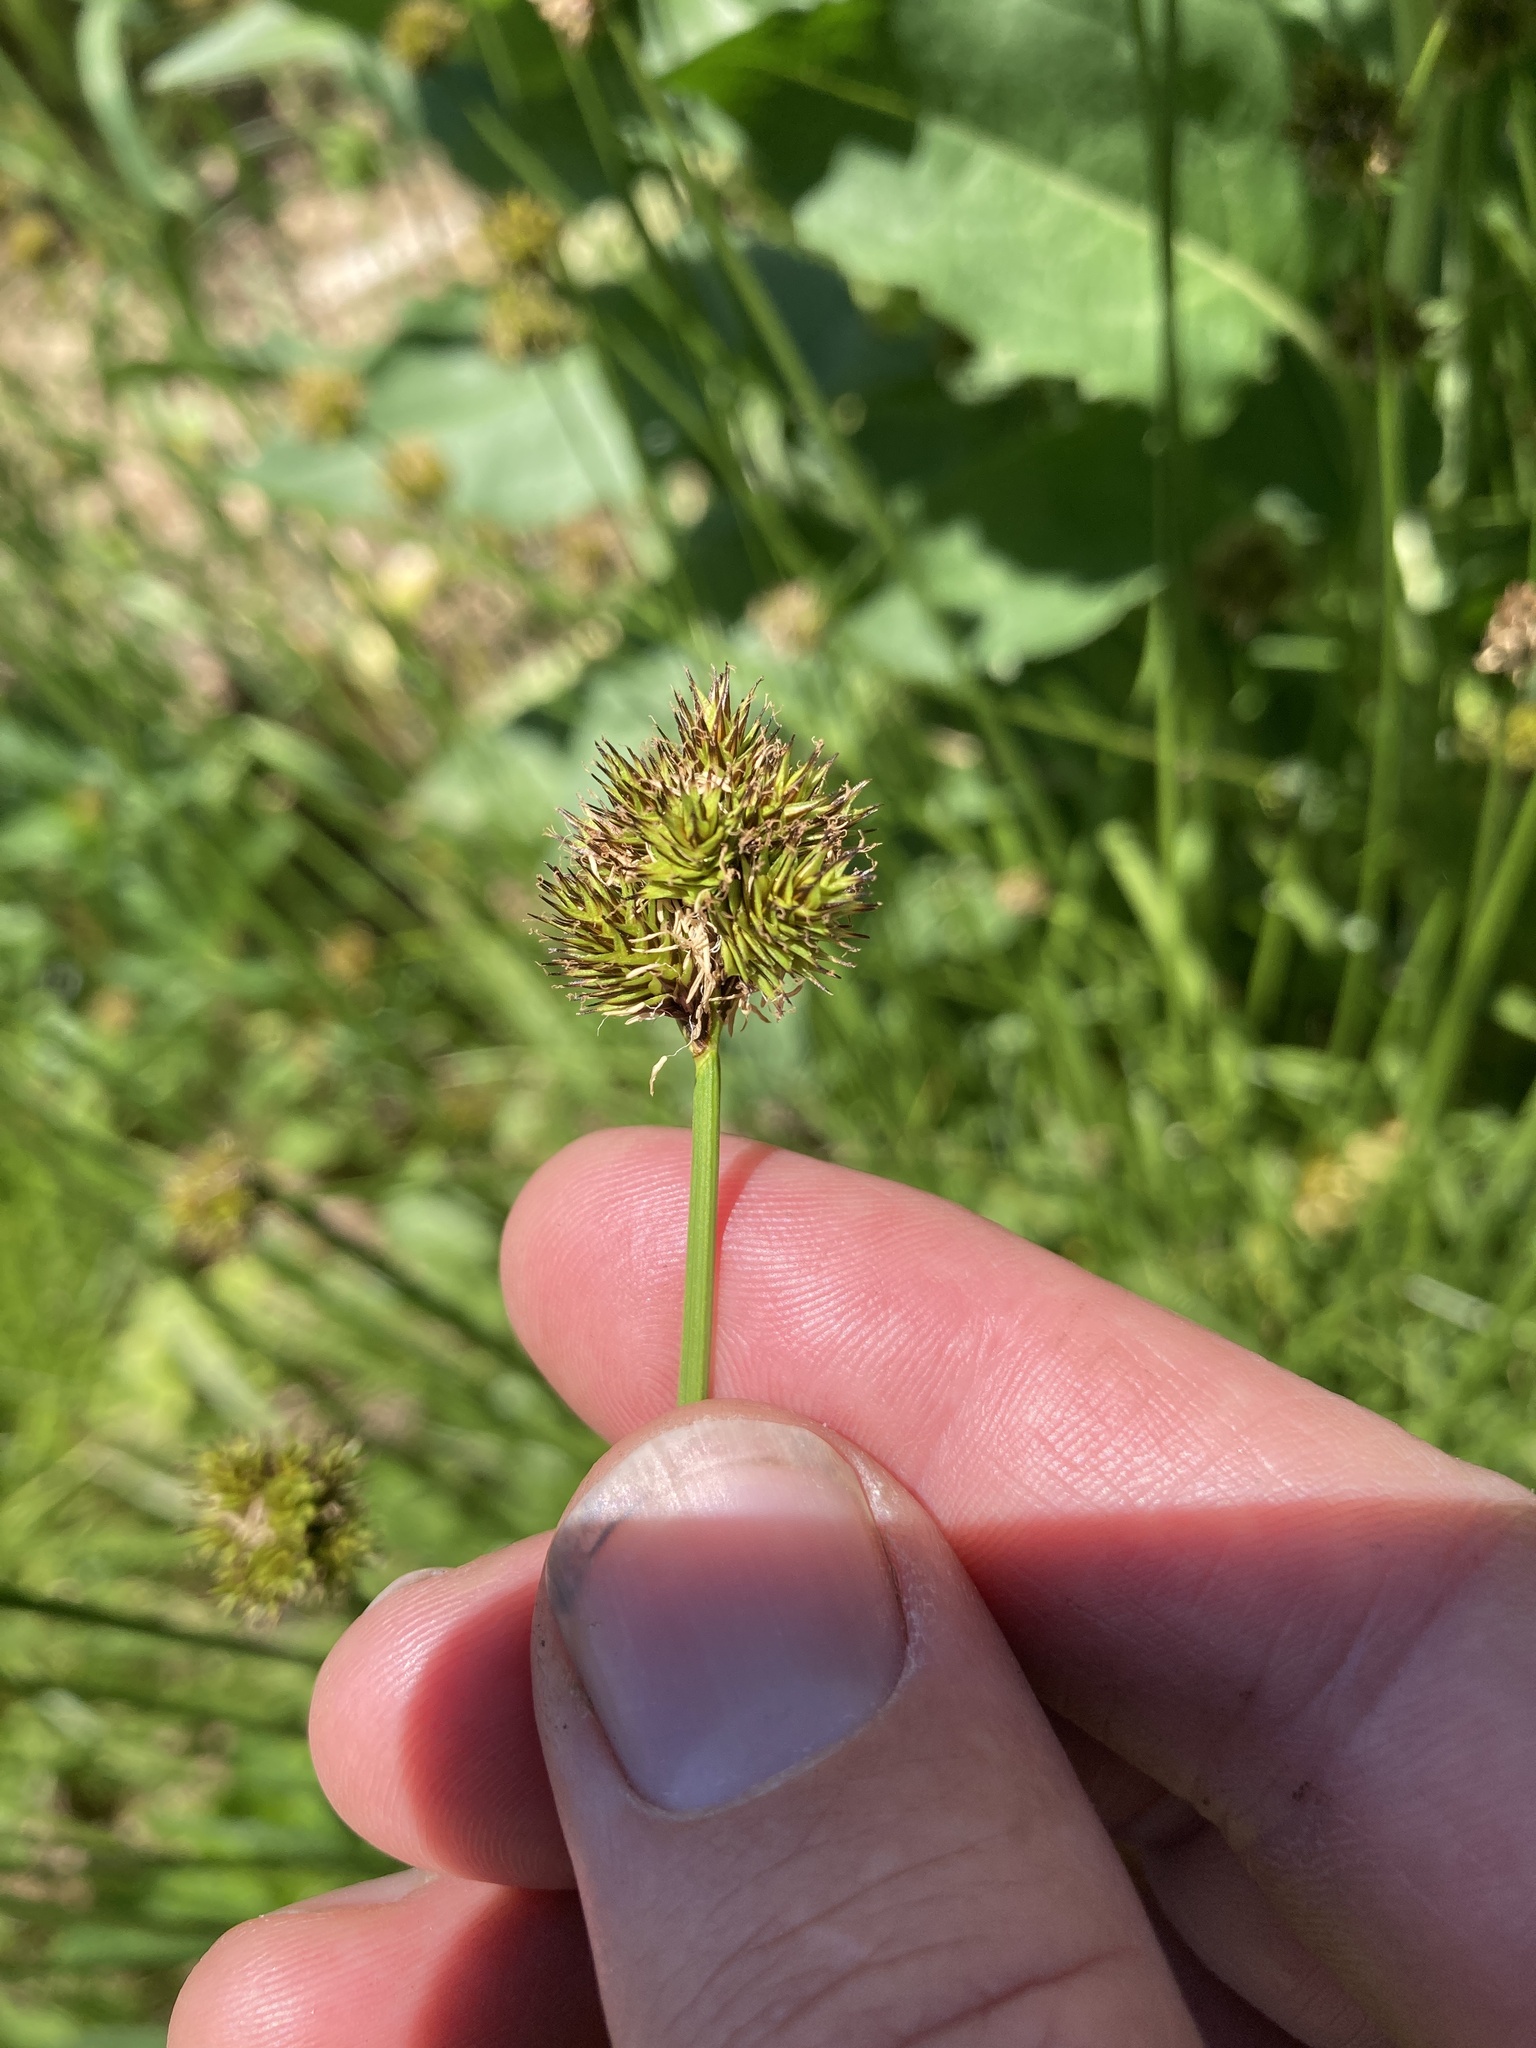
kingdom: Plantae
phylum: Tracheophyta
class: Liliopsida
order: Poales
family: Cyperaceae
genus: Carex
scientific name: Carex microptera
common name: Oval-headed sedge
